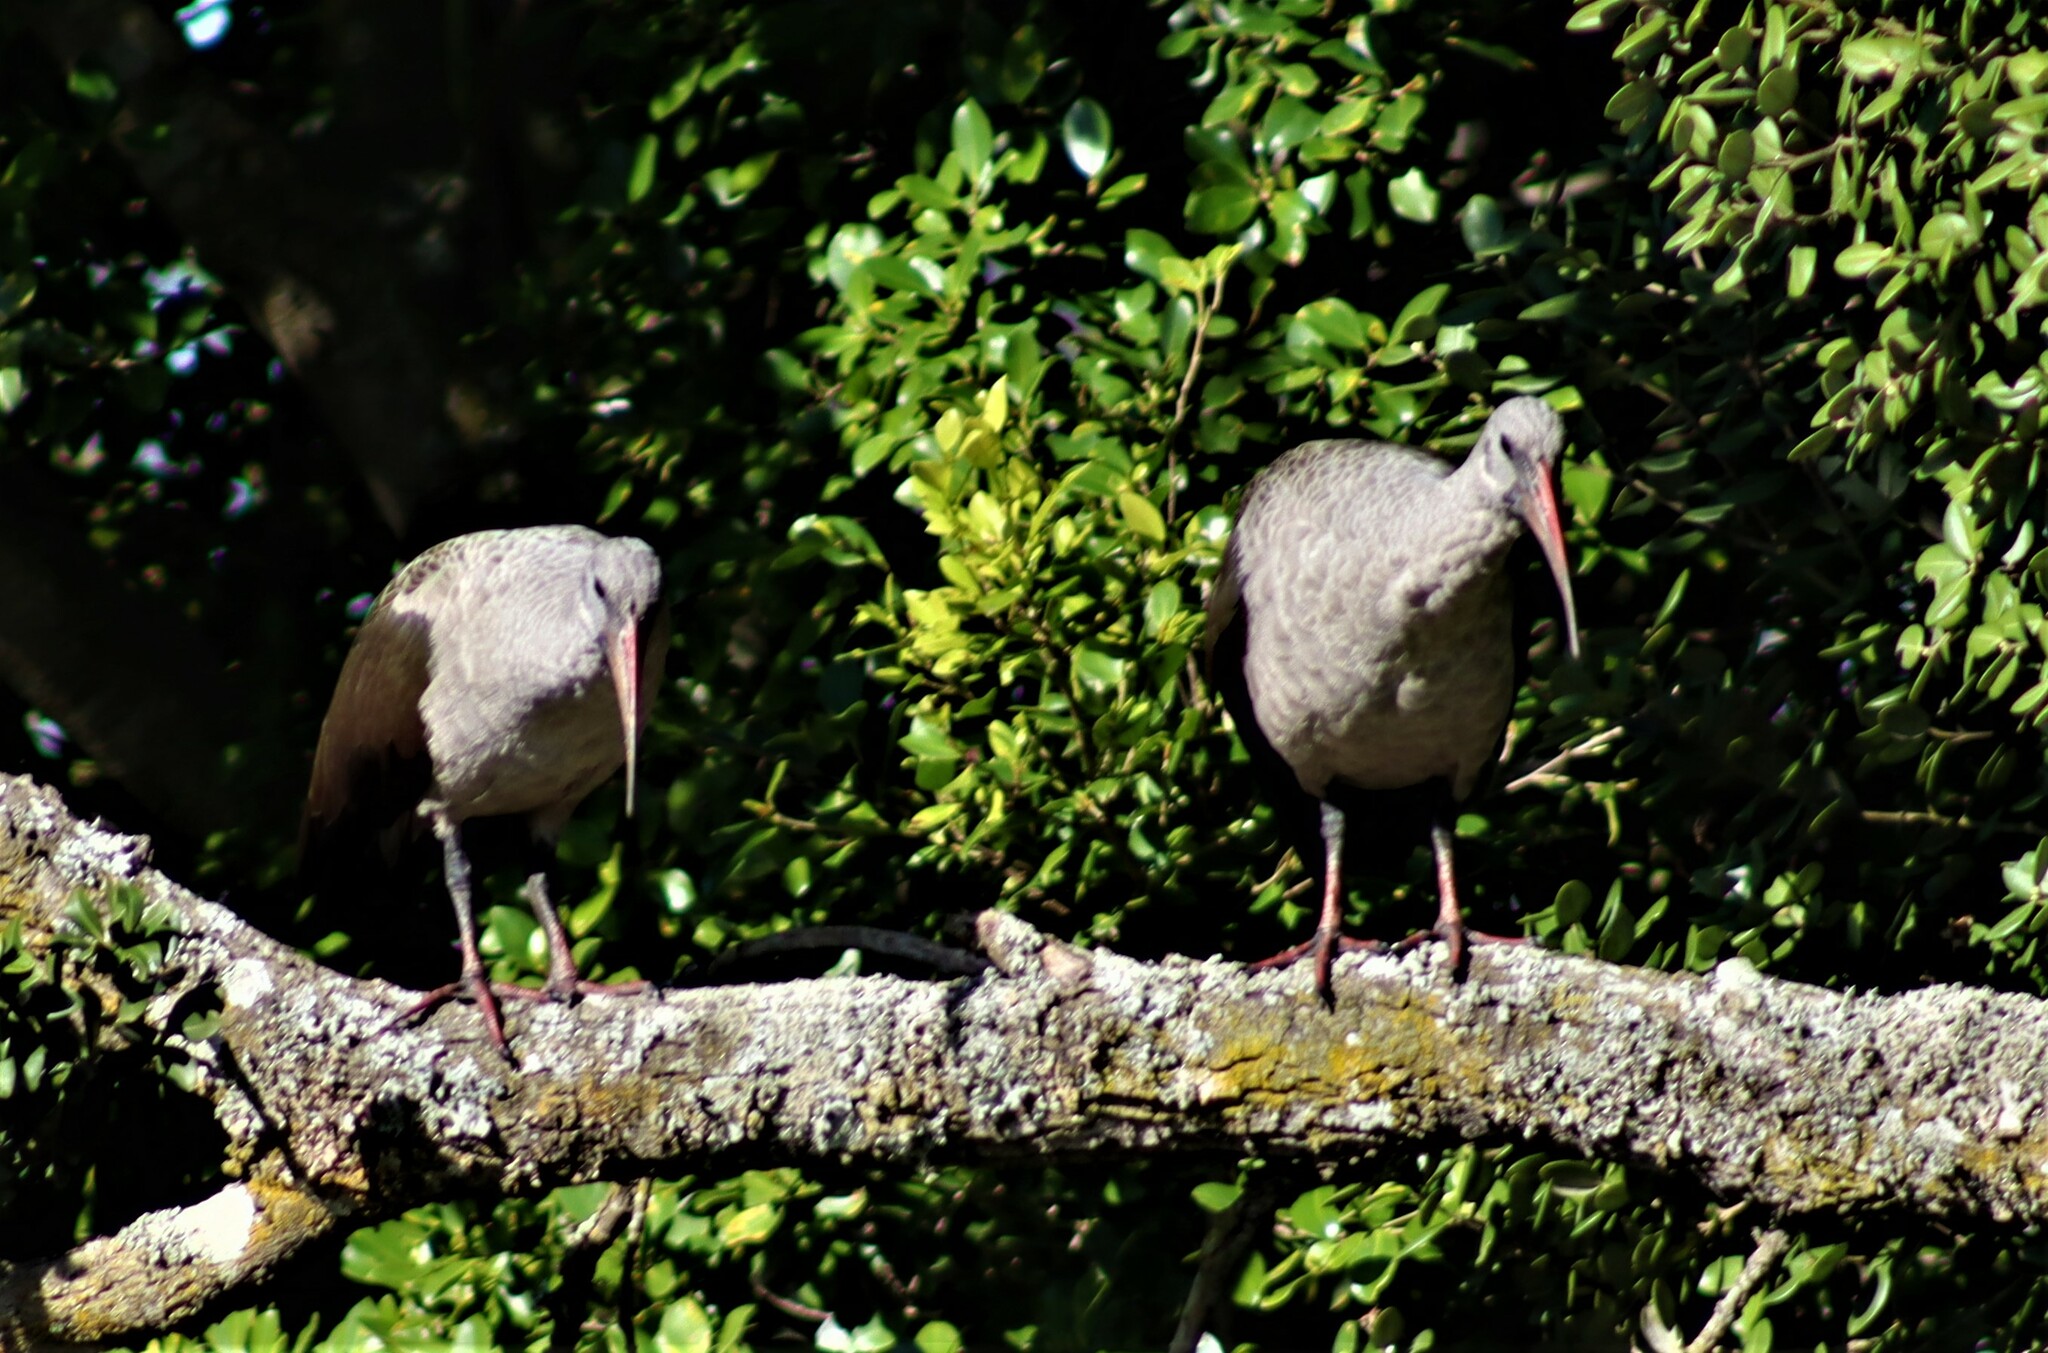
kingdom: Animalia
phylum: Chordata
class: Aves
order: Pelecaniformes
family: Threskiornithidae
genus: Bostrychia
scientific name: Bostrychia hagedash
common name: Hadada ibis
